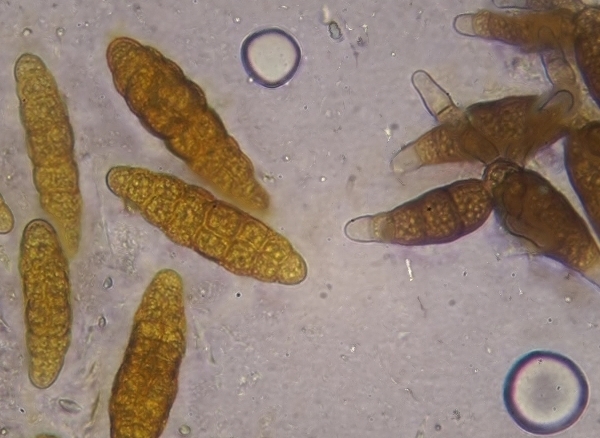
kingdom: Fungi
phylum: Ascomycota
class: Dothideomycetes
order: Pleosporales
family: Pleomassariaceae
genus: Prosthemium
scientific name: Prosthemium betulinum
